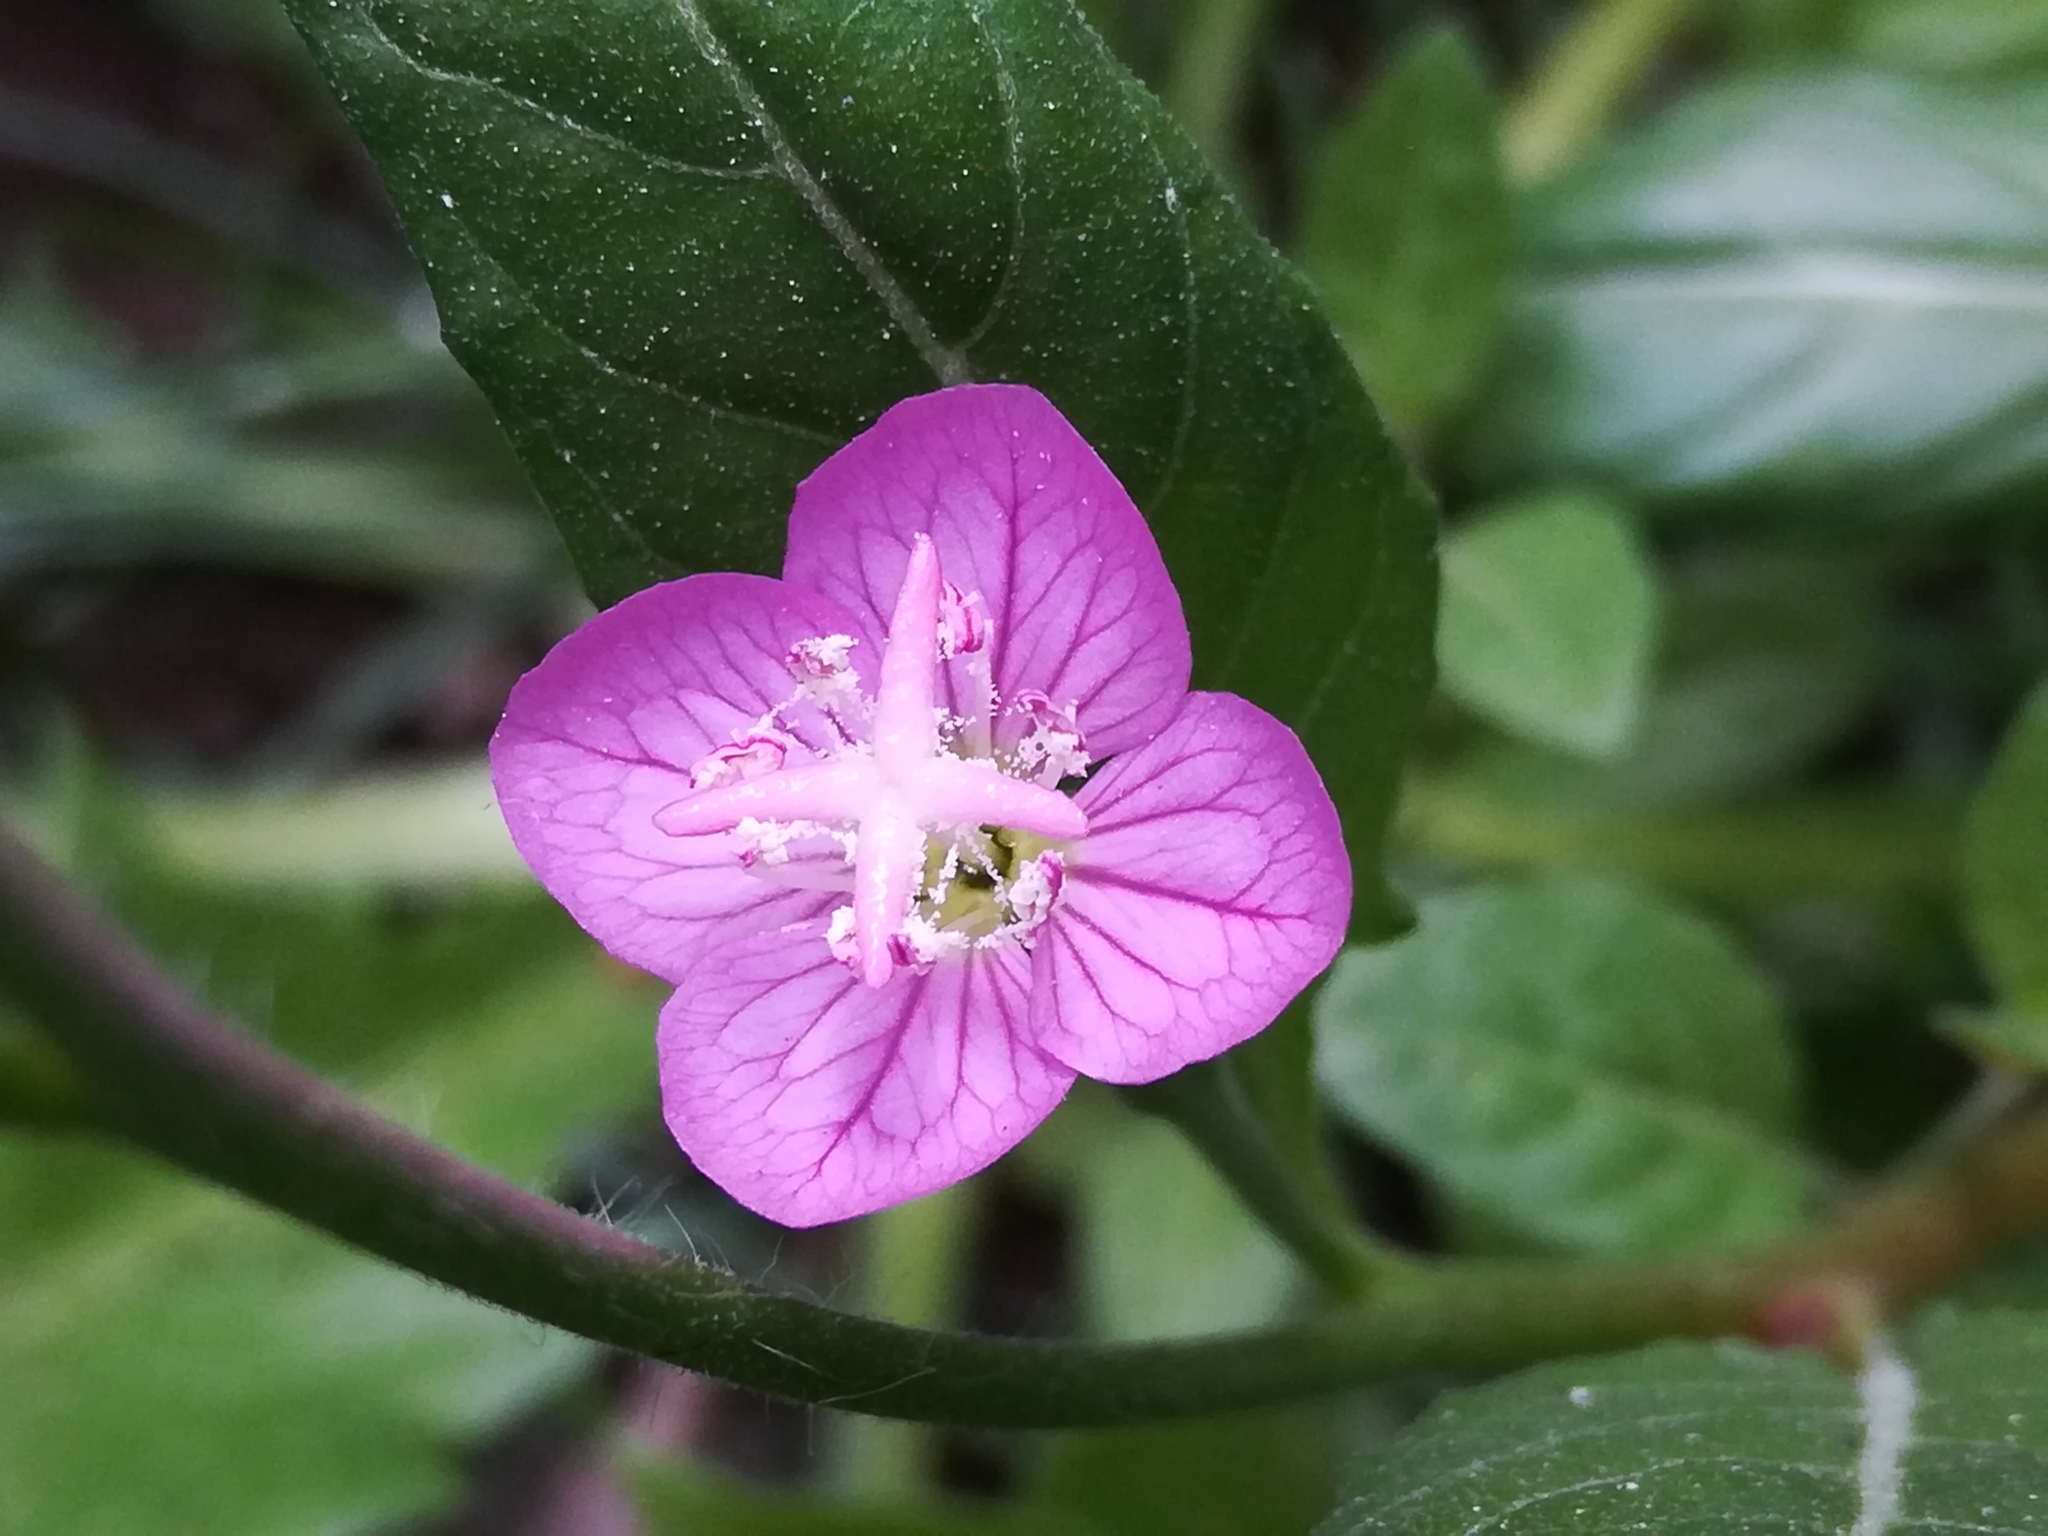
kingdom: Plantae
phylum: Tracheophyta
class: Magnoliopsida
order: Myrtales
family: Onagraceae
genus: Oenothera
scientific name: Oenothera rosea
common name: Rosy evening-primrose
